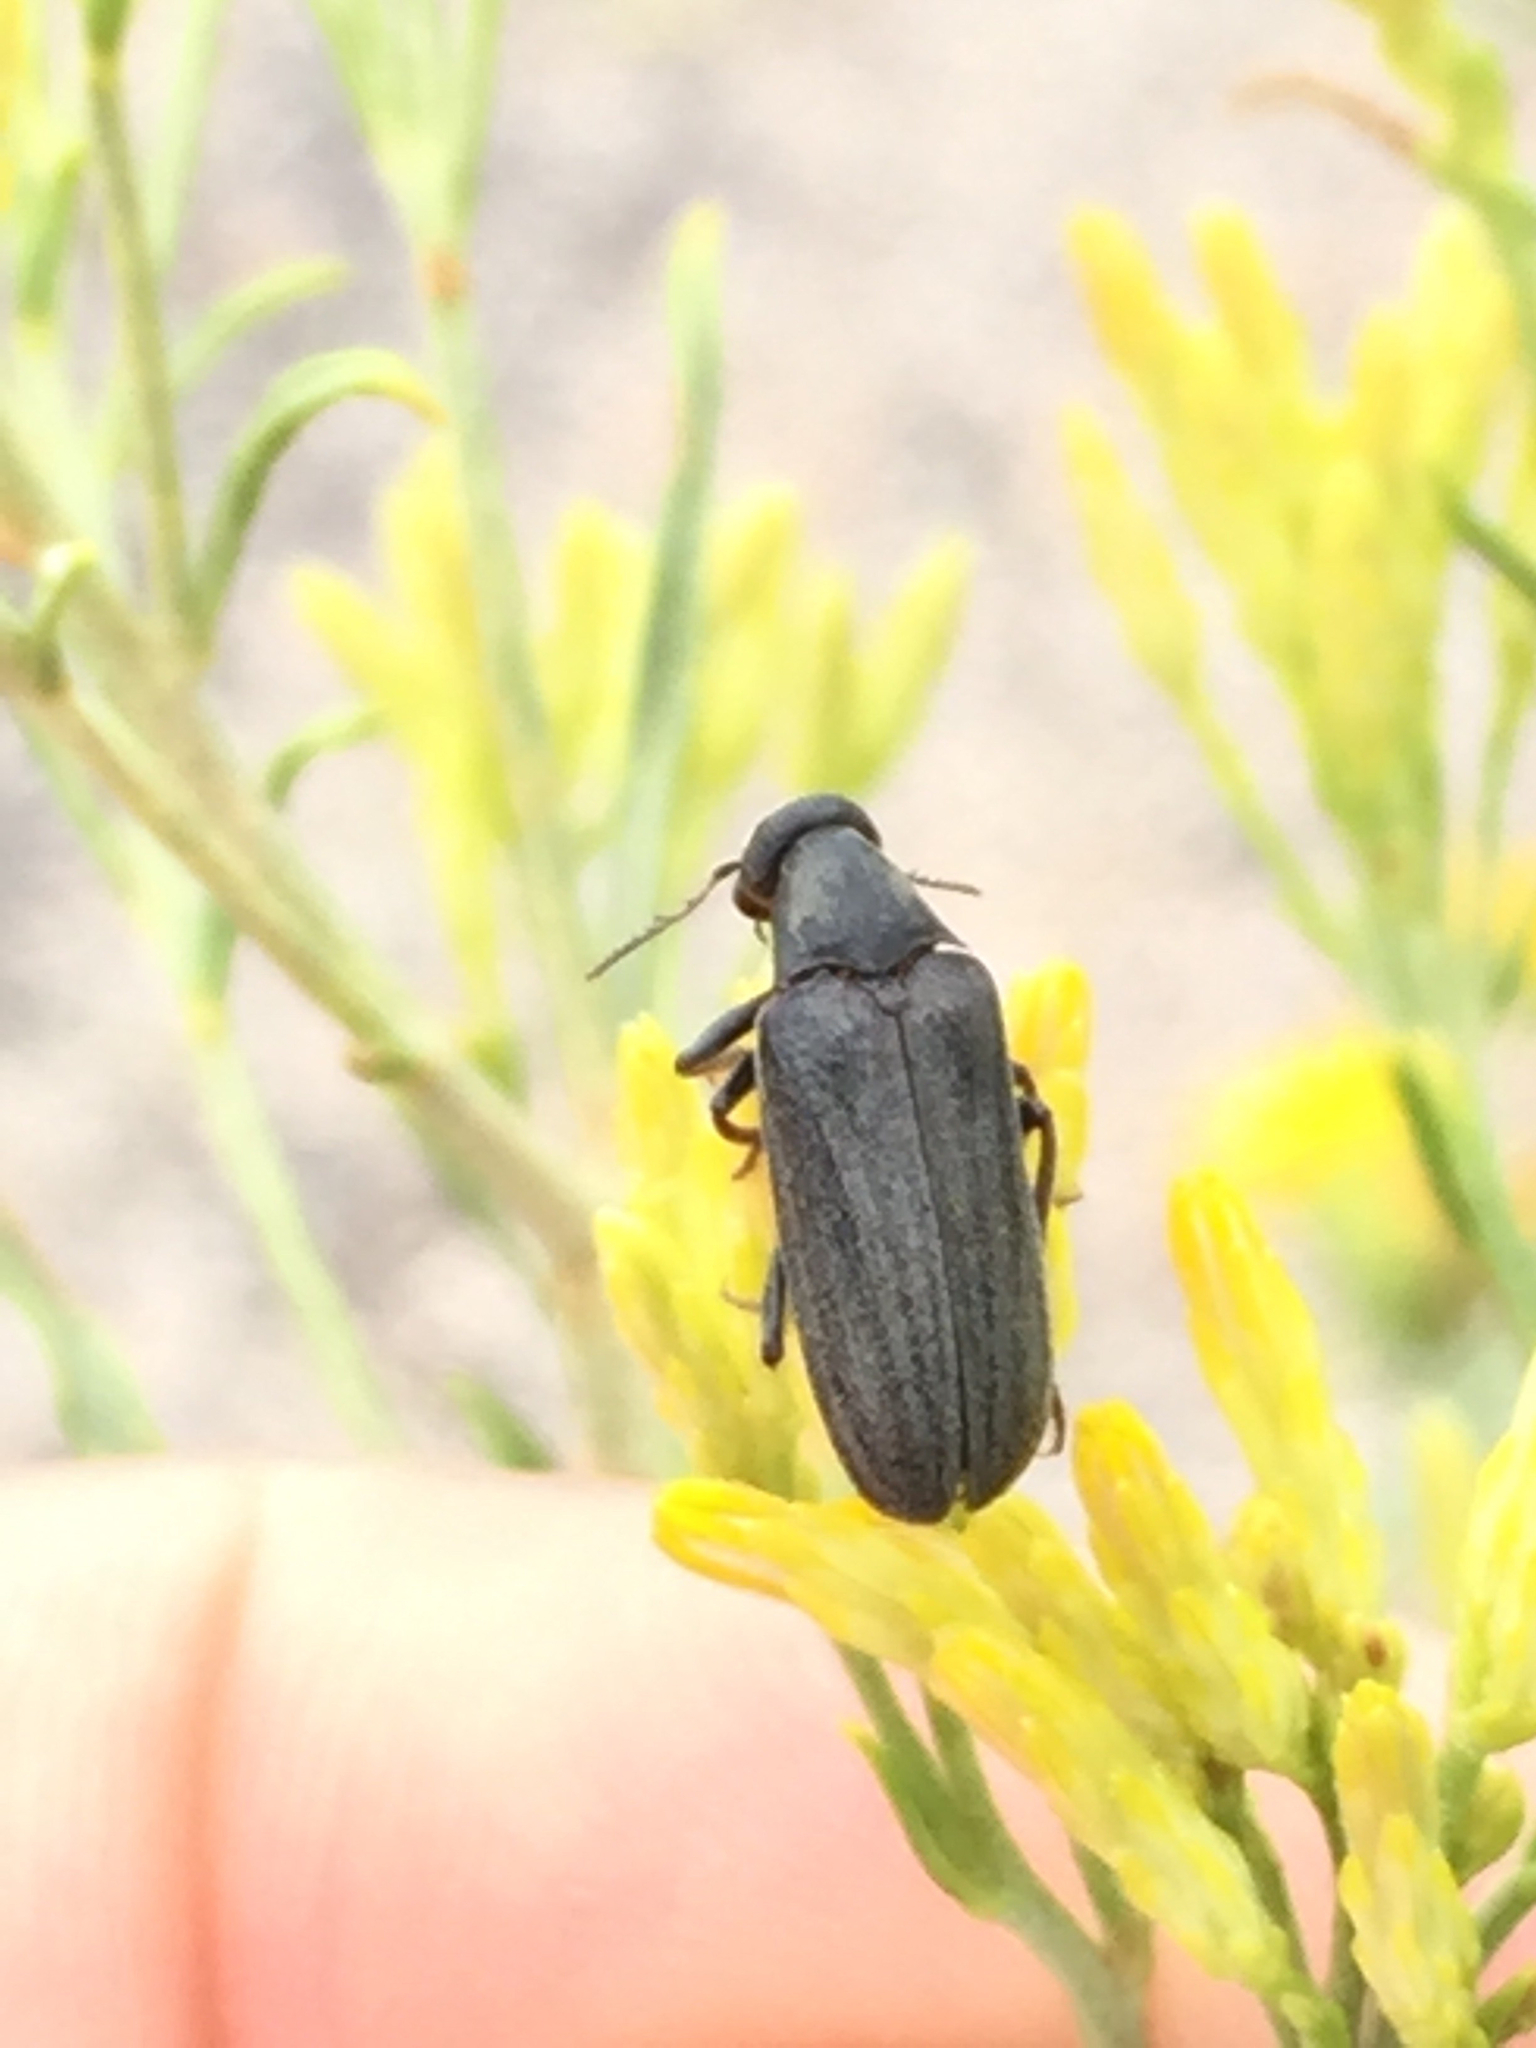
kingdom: Animalia
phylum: Arthropoda
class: Insecta
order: Coleoptera
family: Ripiphoridae
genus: Ptilophorus
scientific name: Ptilophorus wrightii
